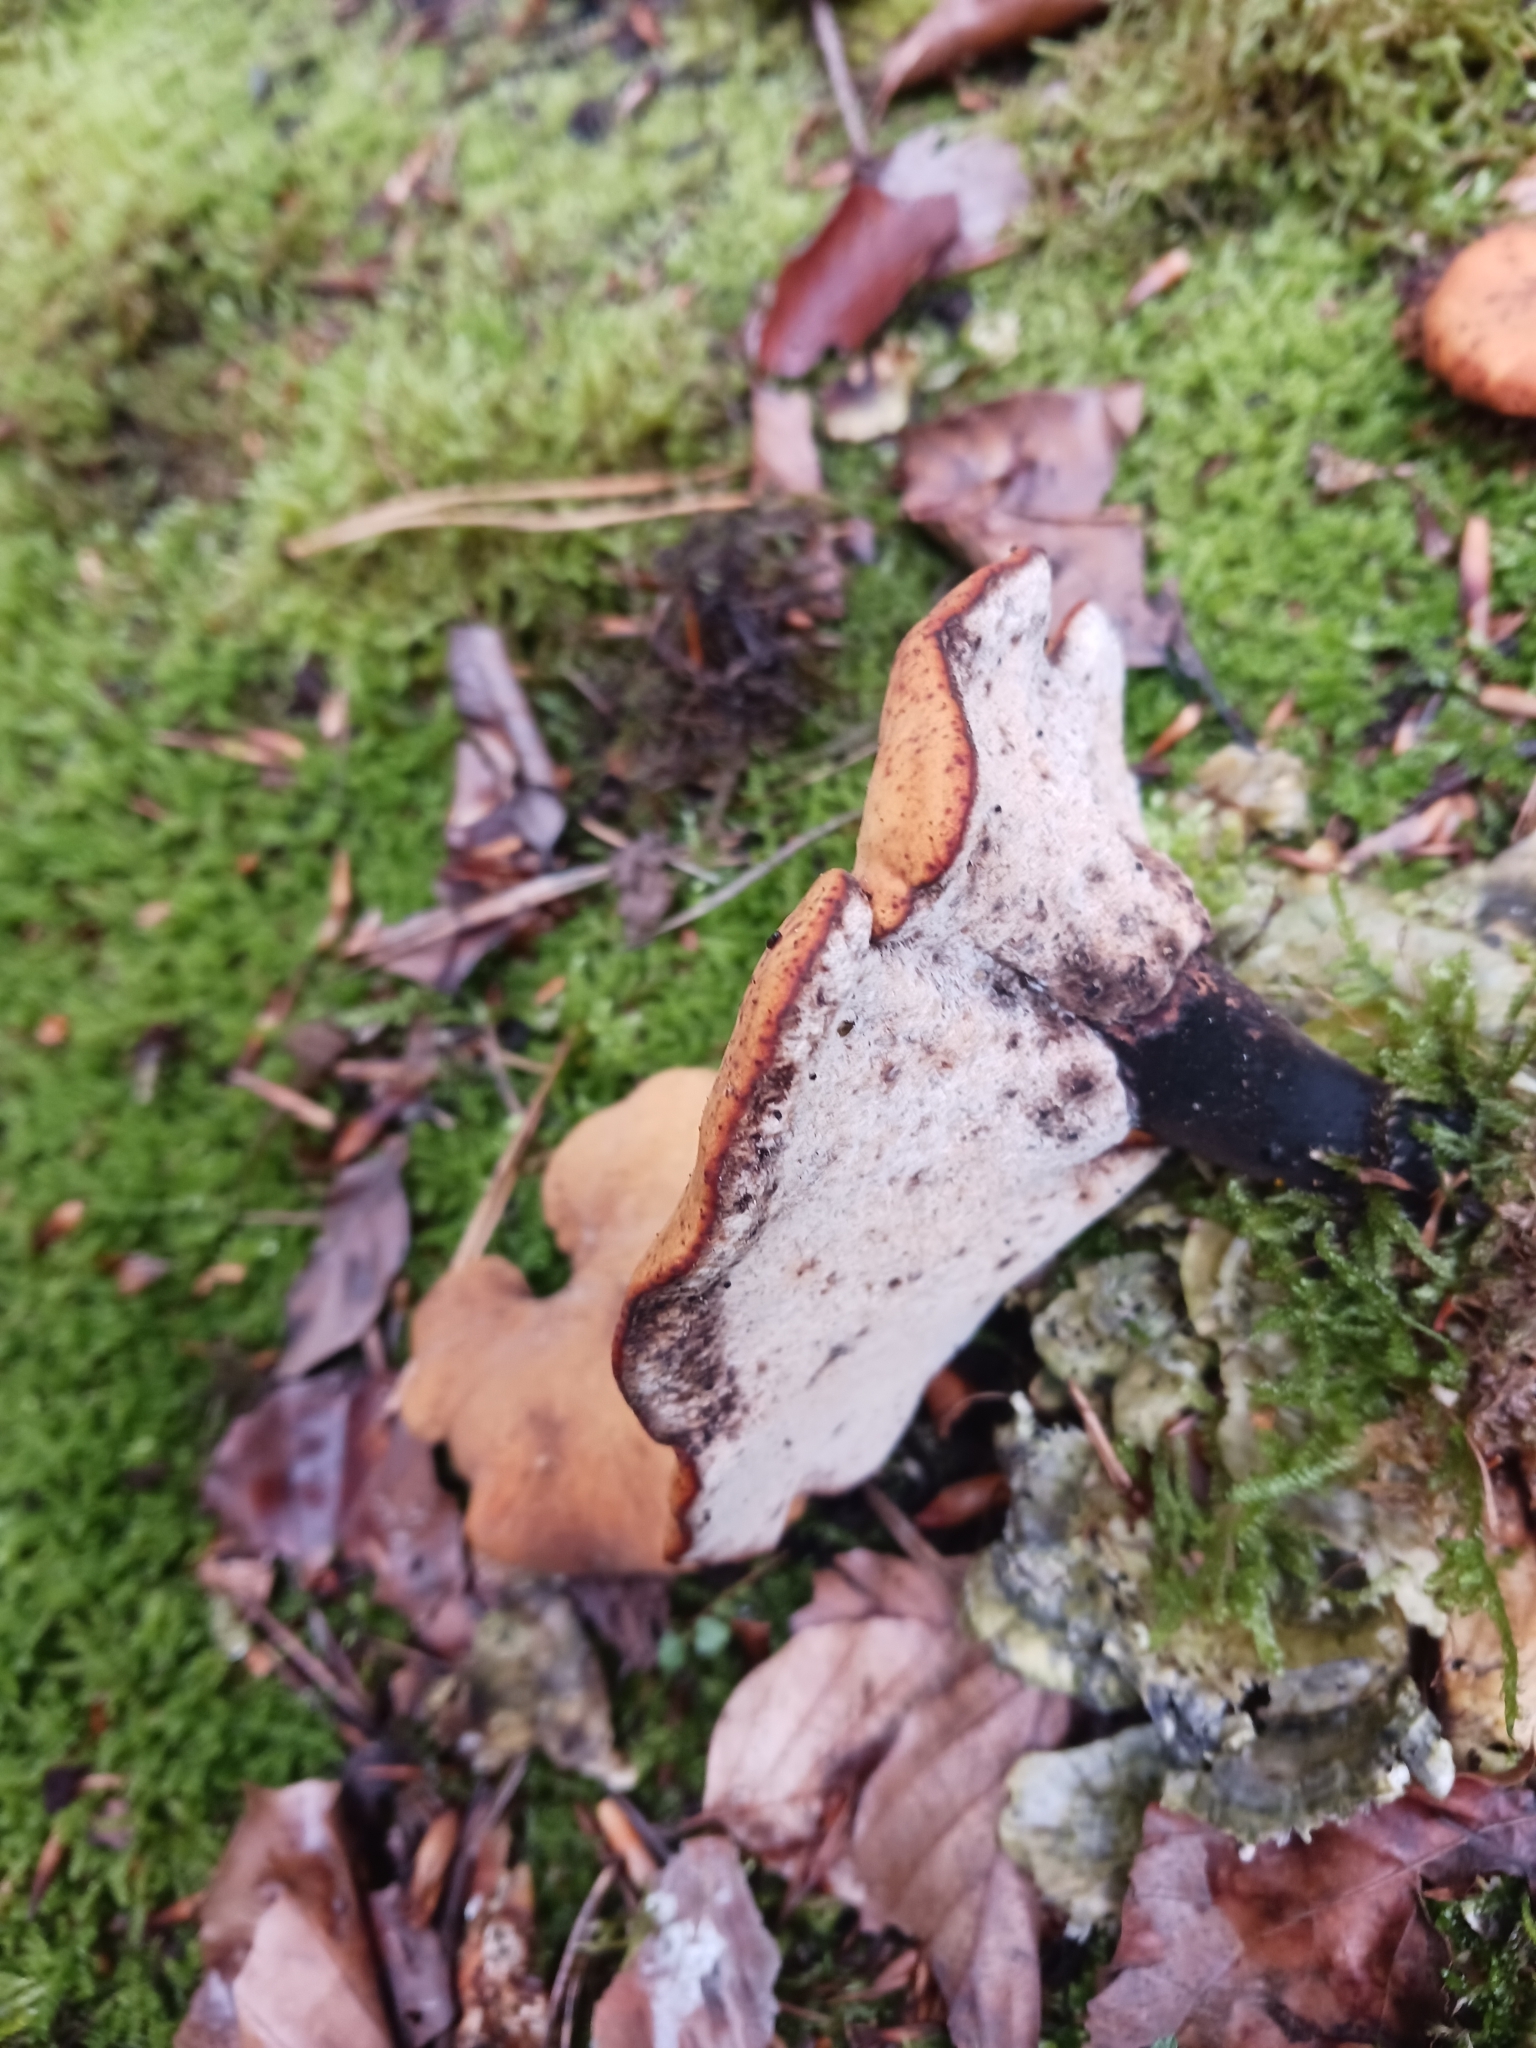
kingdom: Fungi
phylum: Basidiomycota
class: Agaricomycetes
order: Polyporales
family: Polyporaceae
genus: Cerioporus
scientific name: Cerioporus varius
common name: Elegant polypore
